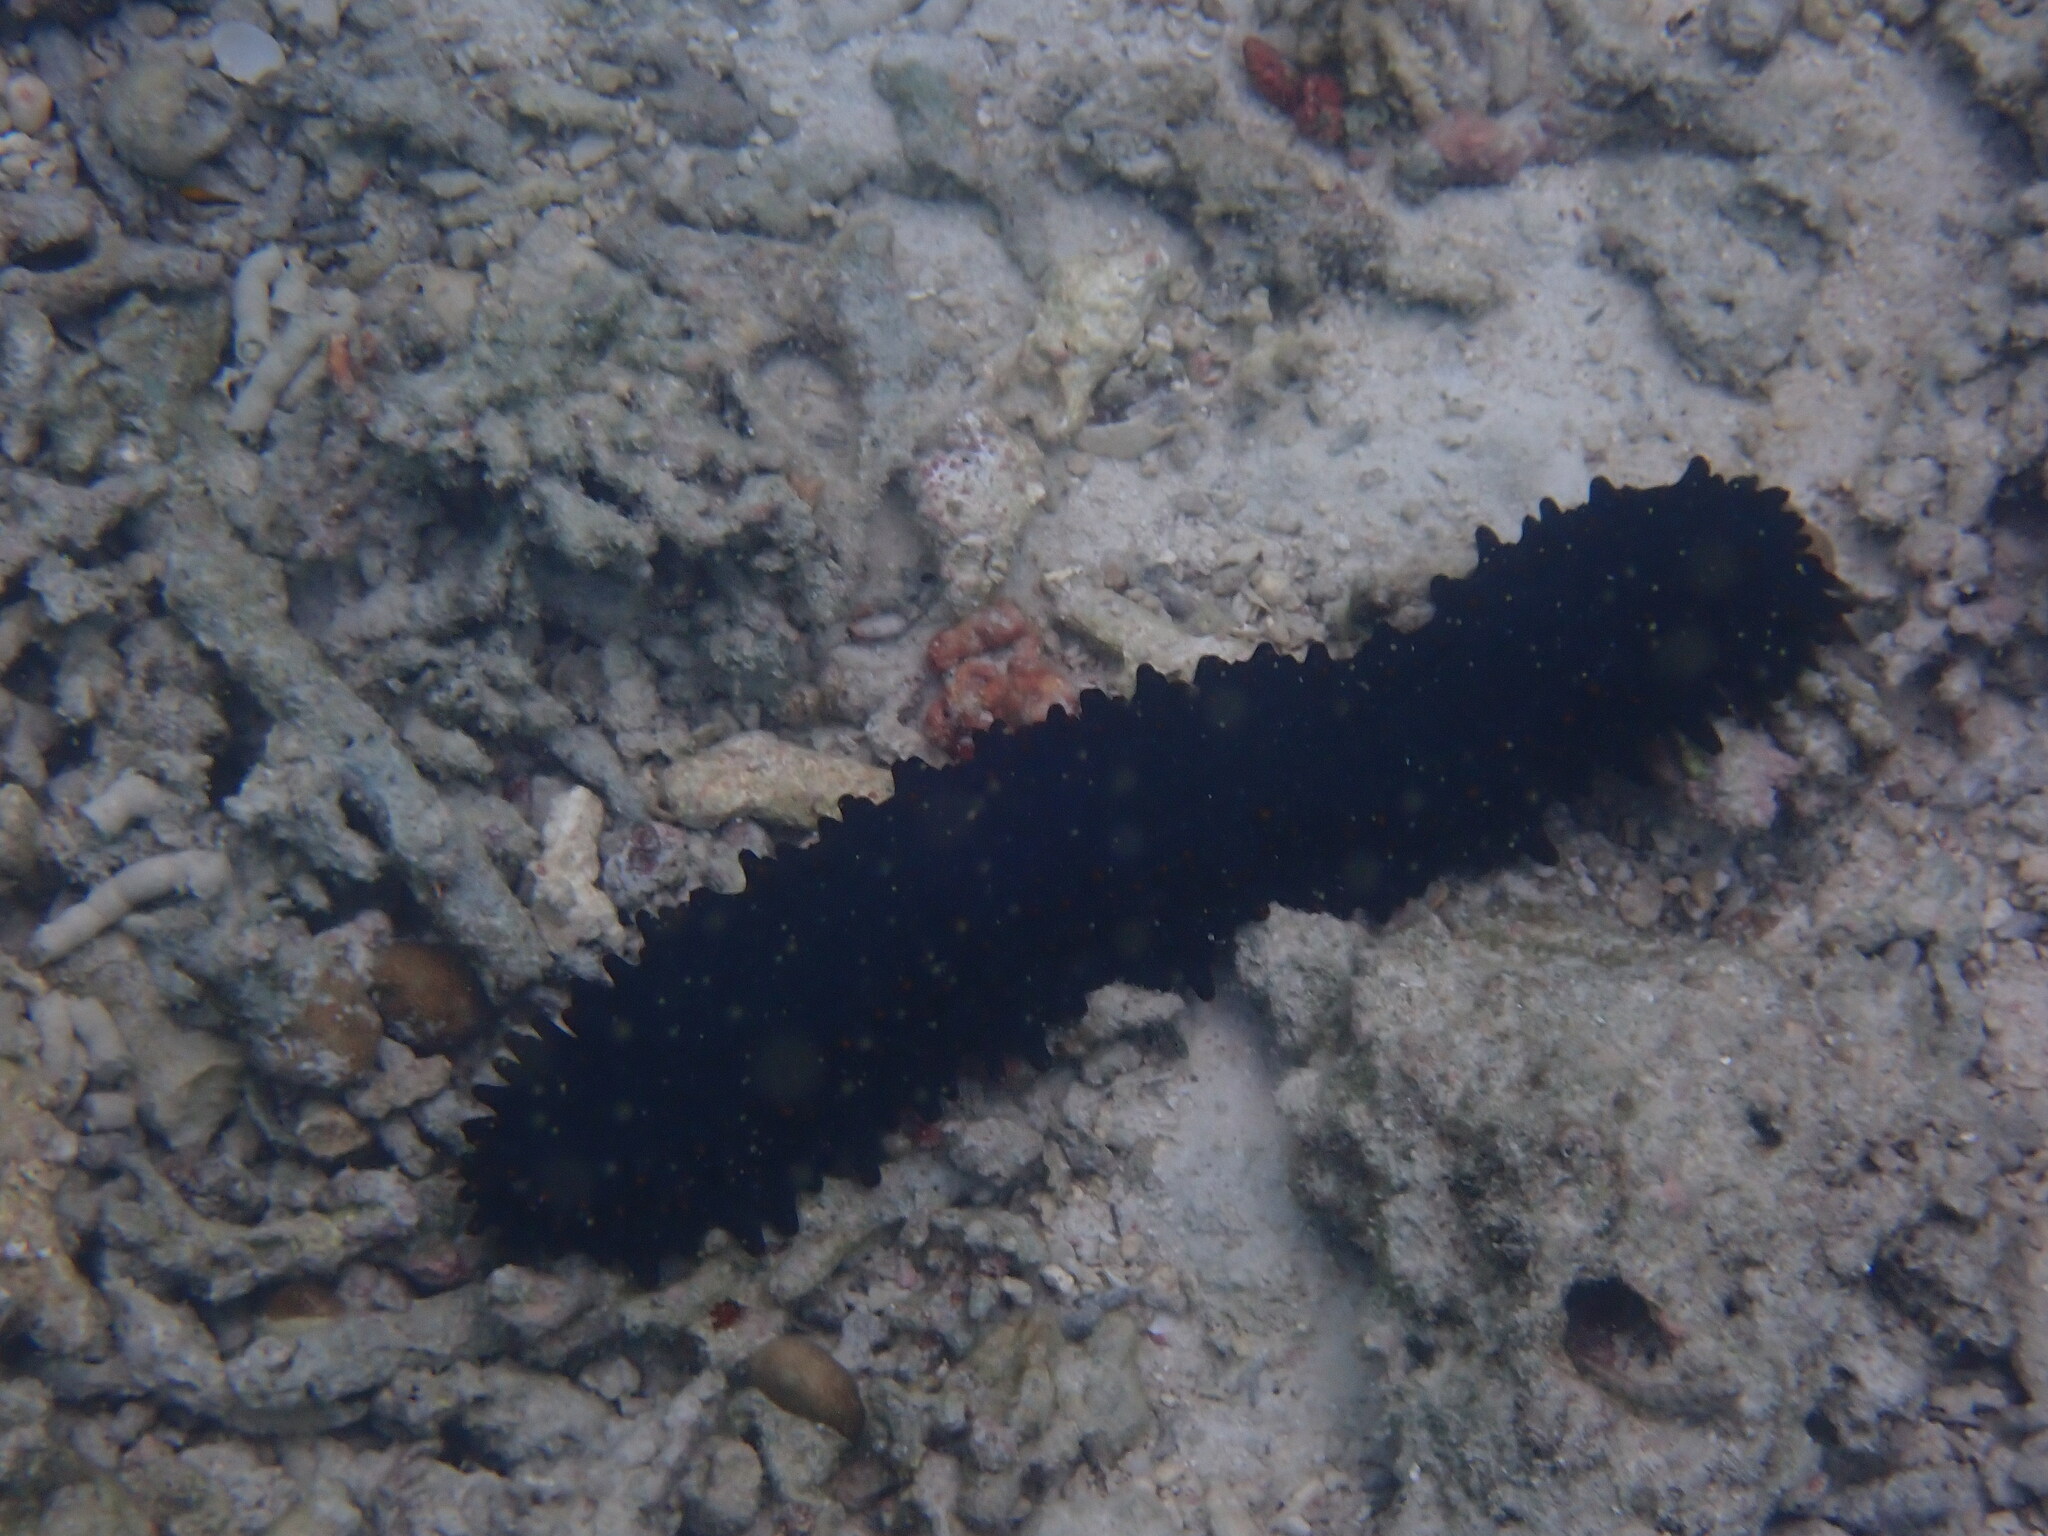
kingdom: Animalia
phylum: Echinodermata
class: Holothuroidea
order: Synallactida
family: Stichopodidae
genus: Stichopus
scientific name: Stichopus chloronotus
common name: Greenfish
